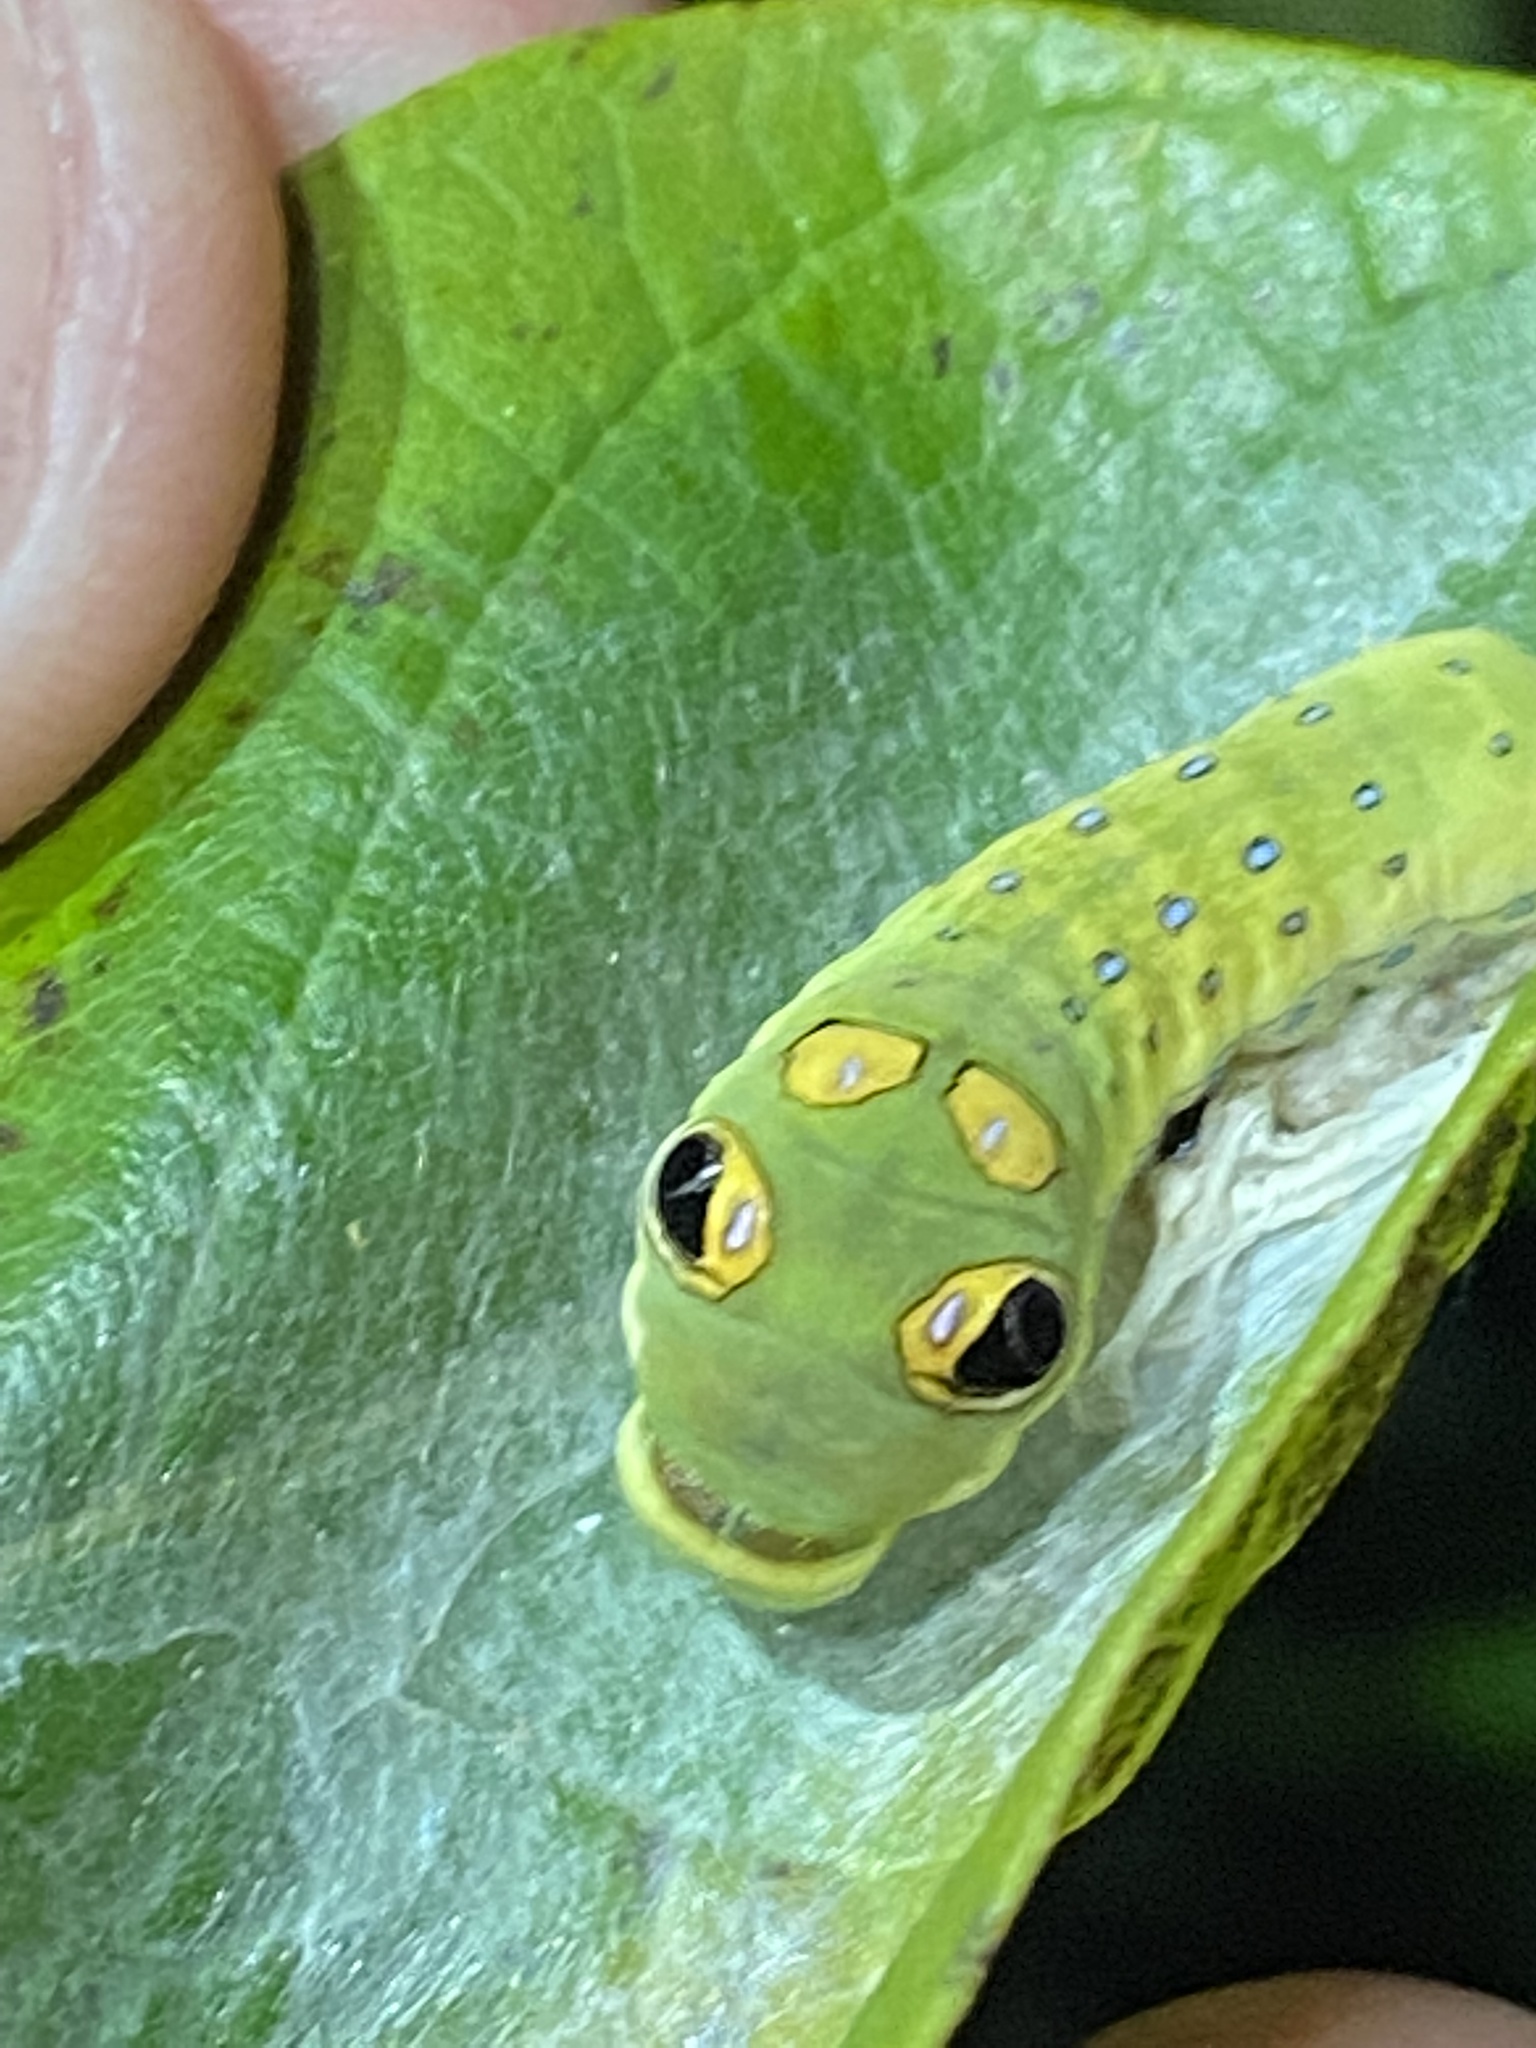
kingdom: Animalia
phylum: Arthropoda
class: Insecta
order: Lepidoptera
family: Papilionidae
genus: Papilio
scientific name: Papilio troilus
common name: Spicebush swallowtail
